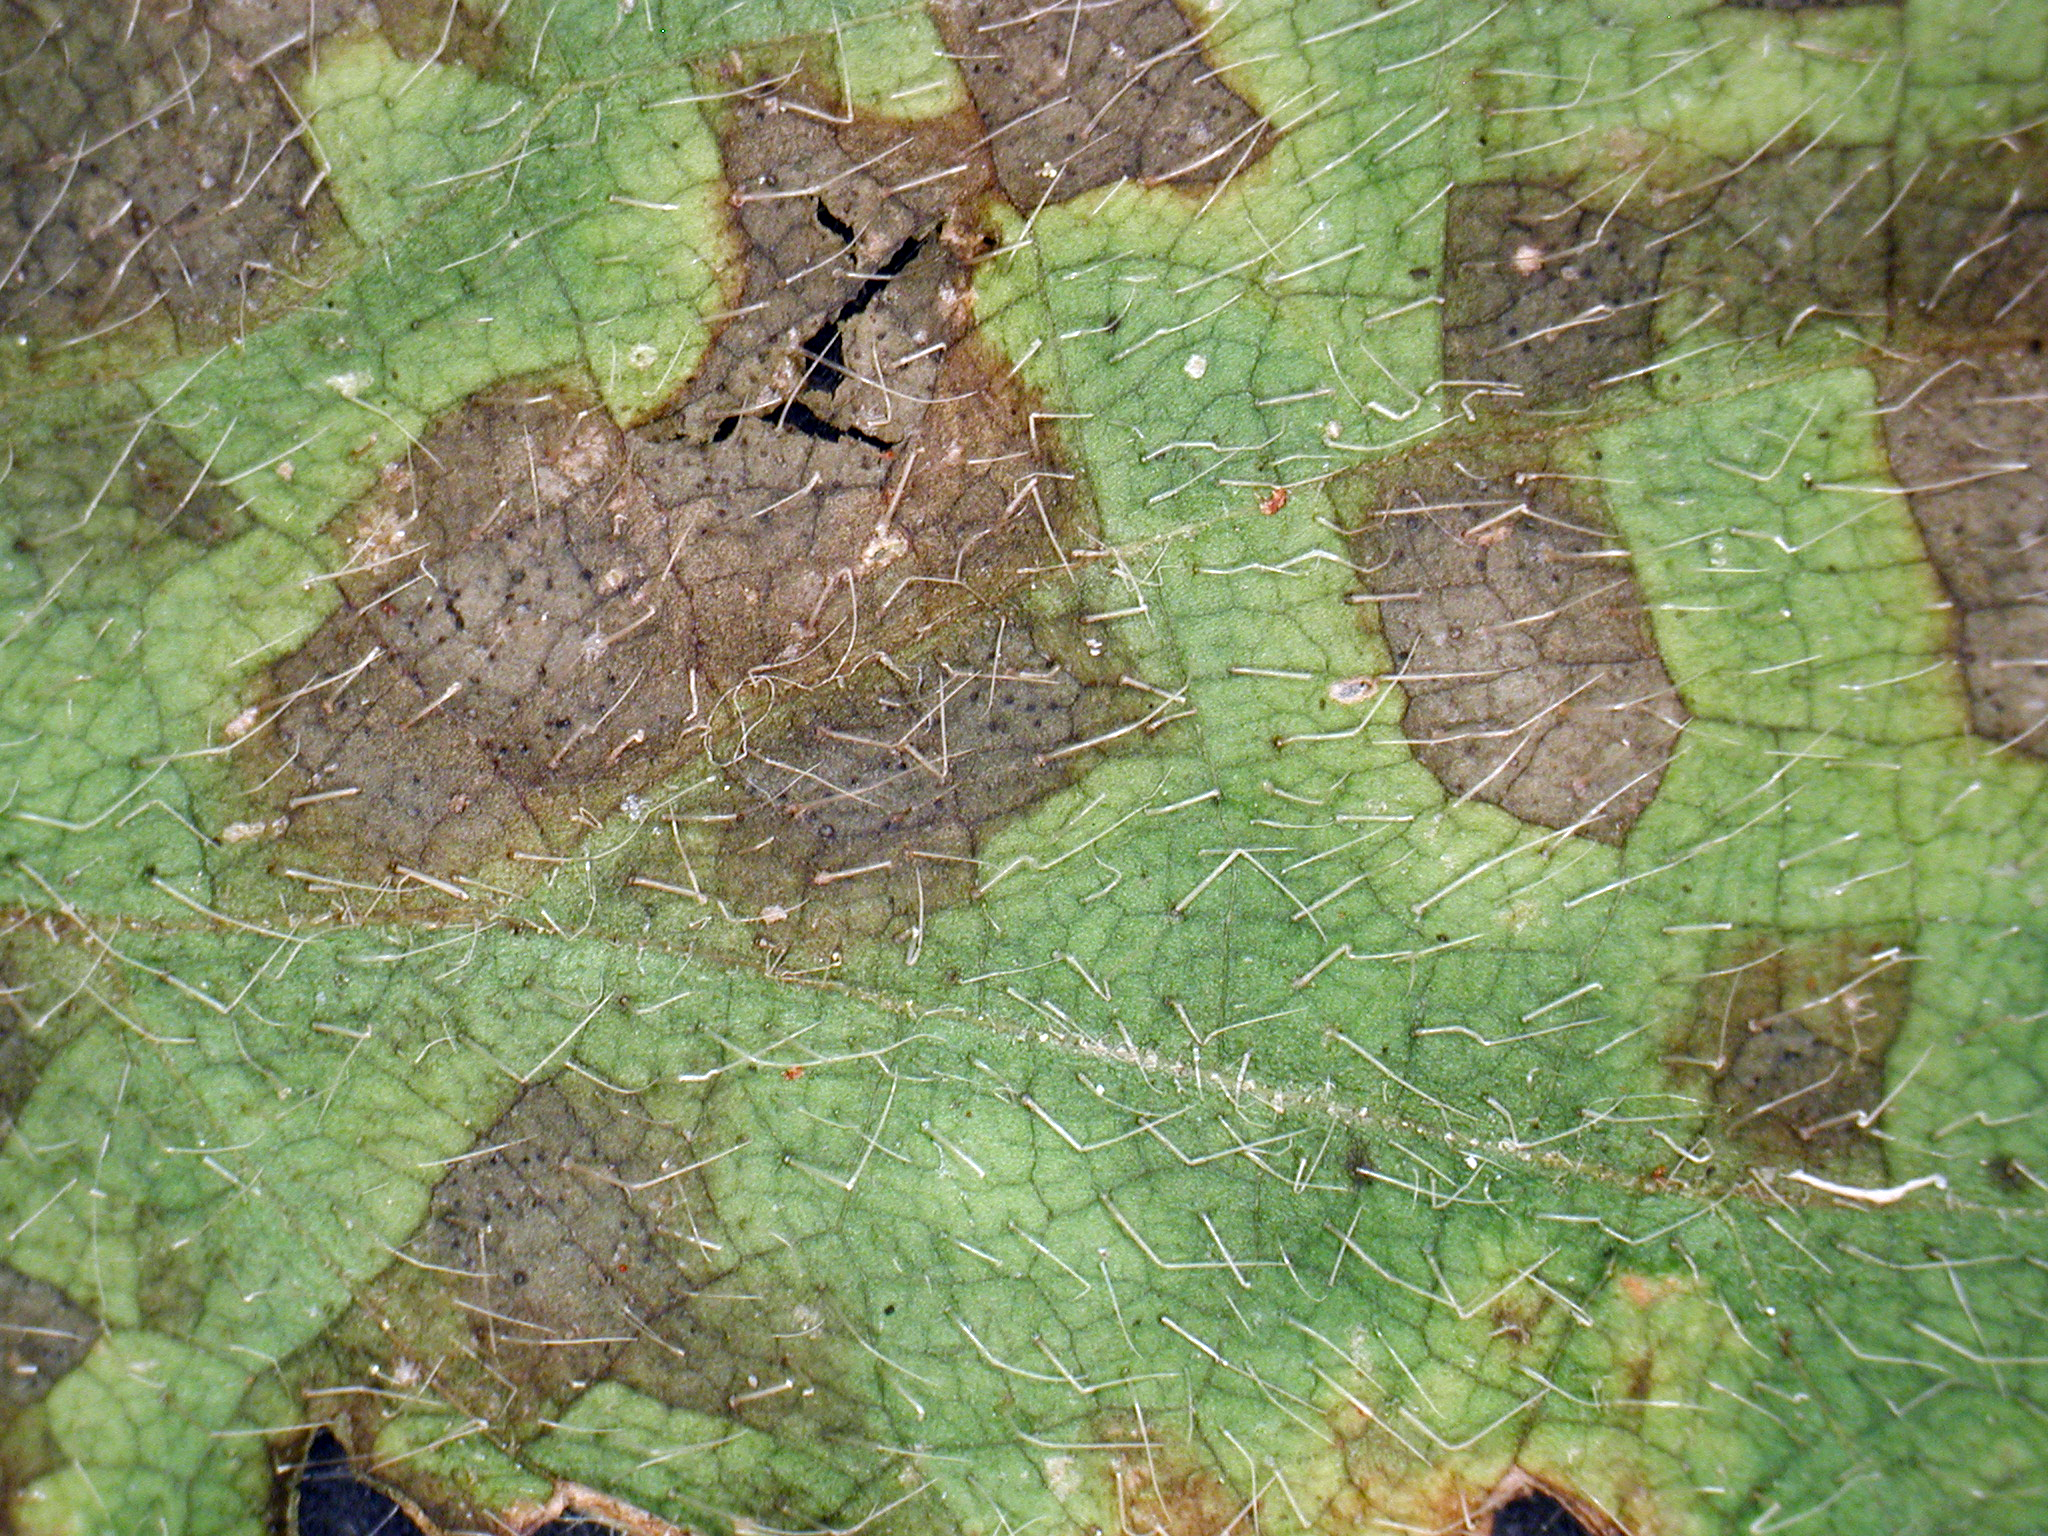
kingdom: Fungi
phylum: Ascomycota
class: Dothideomycetes
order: Mycosphaerellales
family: Mycosphaerellaceae
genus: Septoria
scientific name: Septoria stachydis
